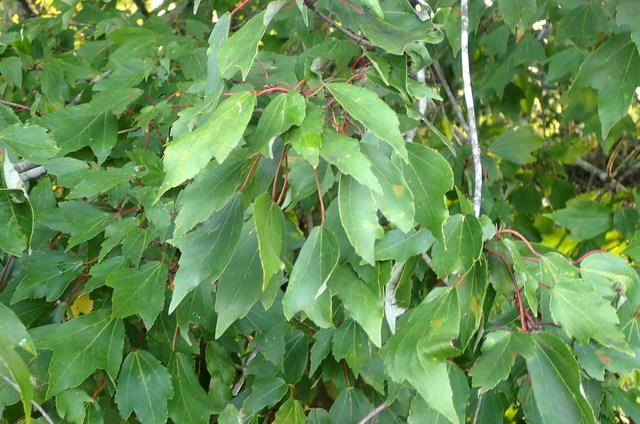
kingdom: Plantae
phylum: Tracheophyta
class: Magnoliopsida
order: Sapindales
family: Sapindaceae
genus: Acer
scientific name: Acer rubrum
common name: Red maple
